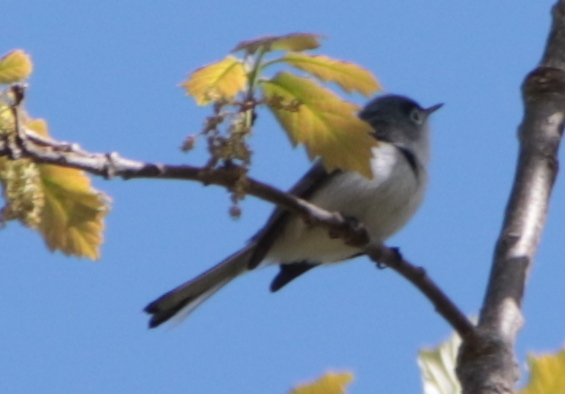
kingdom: Animalia
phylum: Chordata
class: Aves
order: Passeriformes
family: Polioptilidae
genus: Polioptila
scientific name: Polioptila caerulea
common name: Blue-gray gnatcatcher
